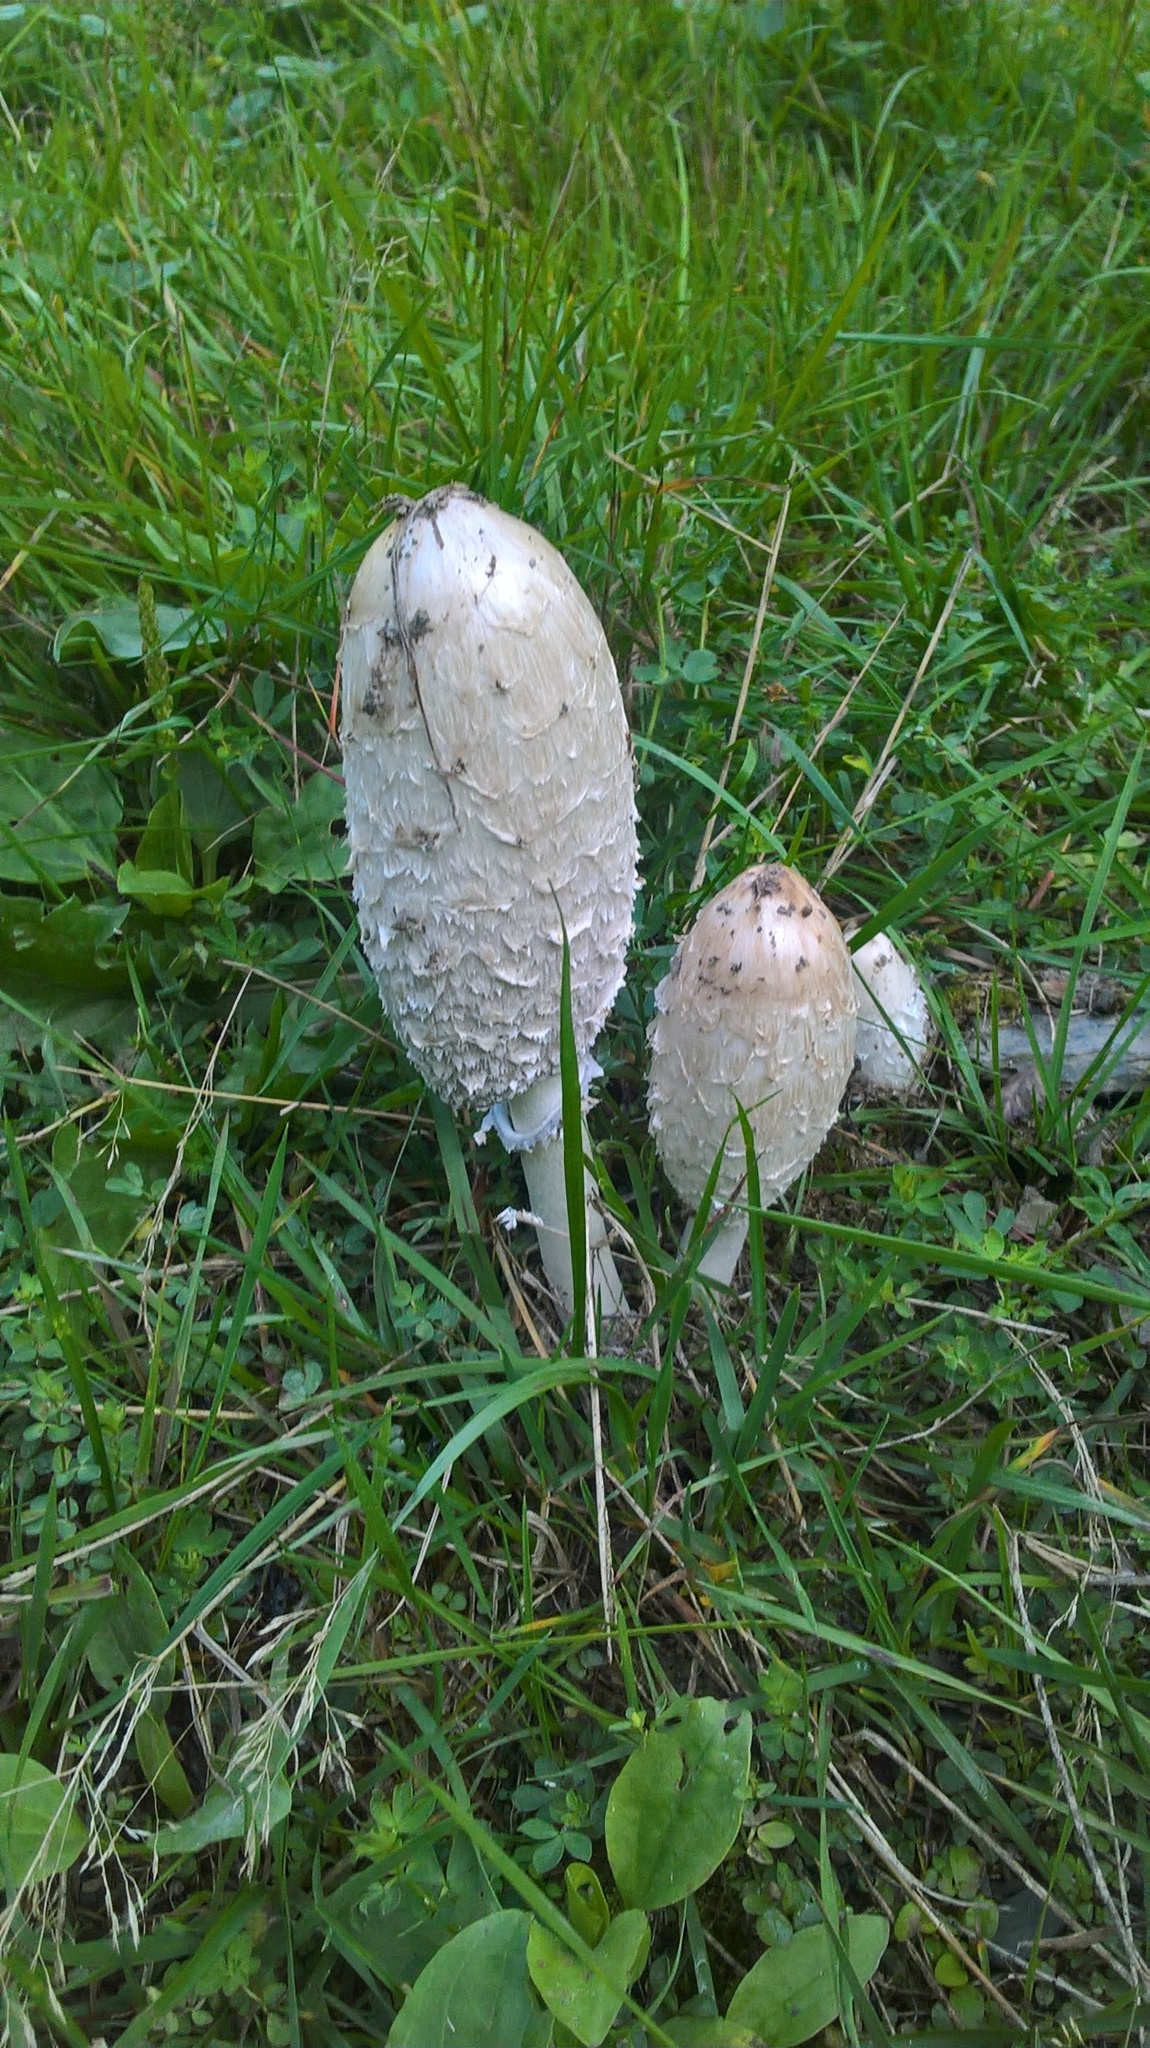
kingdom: Fungi
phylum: Basidiomycota
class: Agaricomycetes
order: Agaricales
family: Agaricaceae
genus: Coprinus
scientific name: Coprinus comatus
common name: Lawyer's wig
